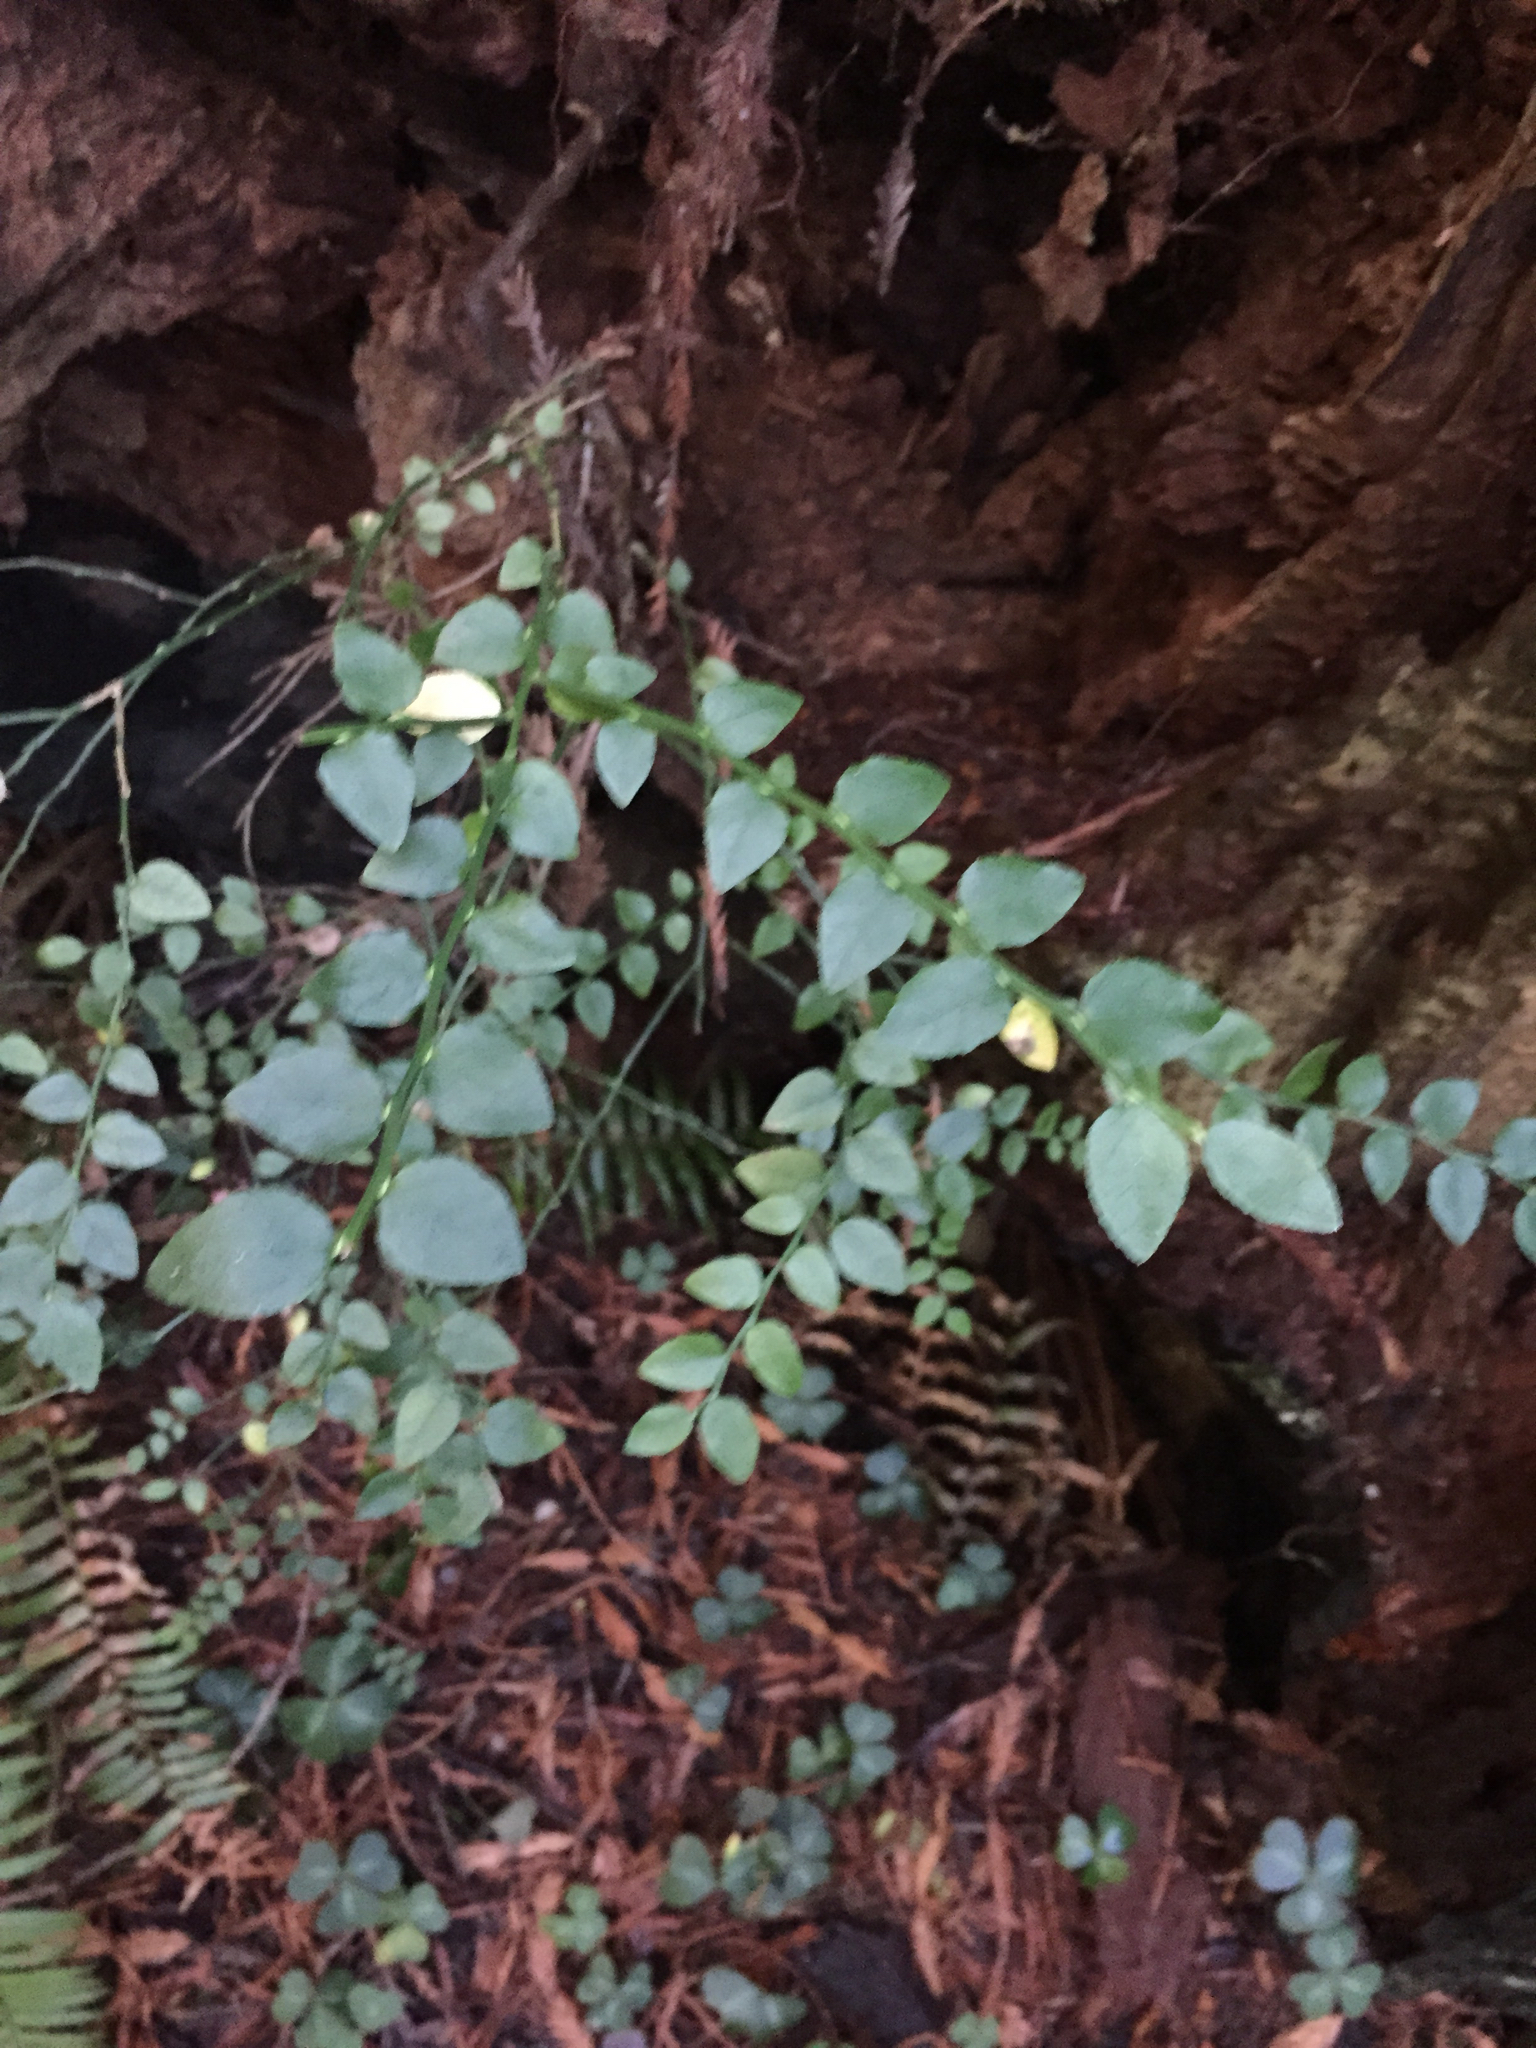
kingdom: Plantae
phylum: Tracheophyta
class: Magnoliopsida
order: Ericales
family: Ericaceae
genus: Vaccinium
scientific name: Vaccinium parvifolium
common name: Red-huckleberry
